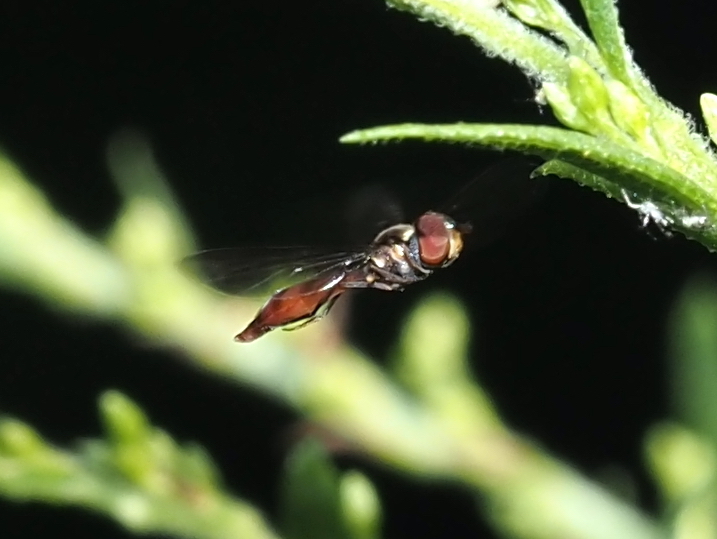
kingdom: Animalia
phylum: Arthropoda
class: Insecta
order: Diptera
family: Syrphidae
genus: Ocyptamus
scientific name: Ocyptamus fuscipennis
